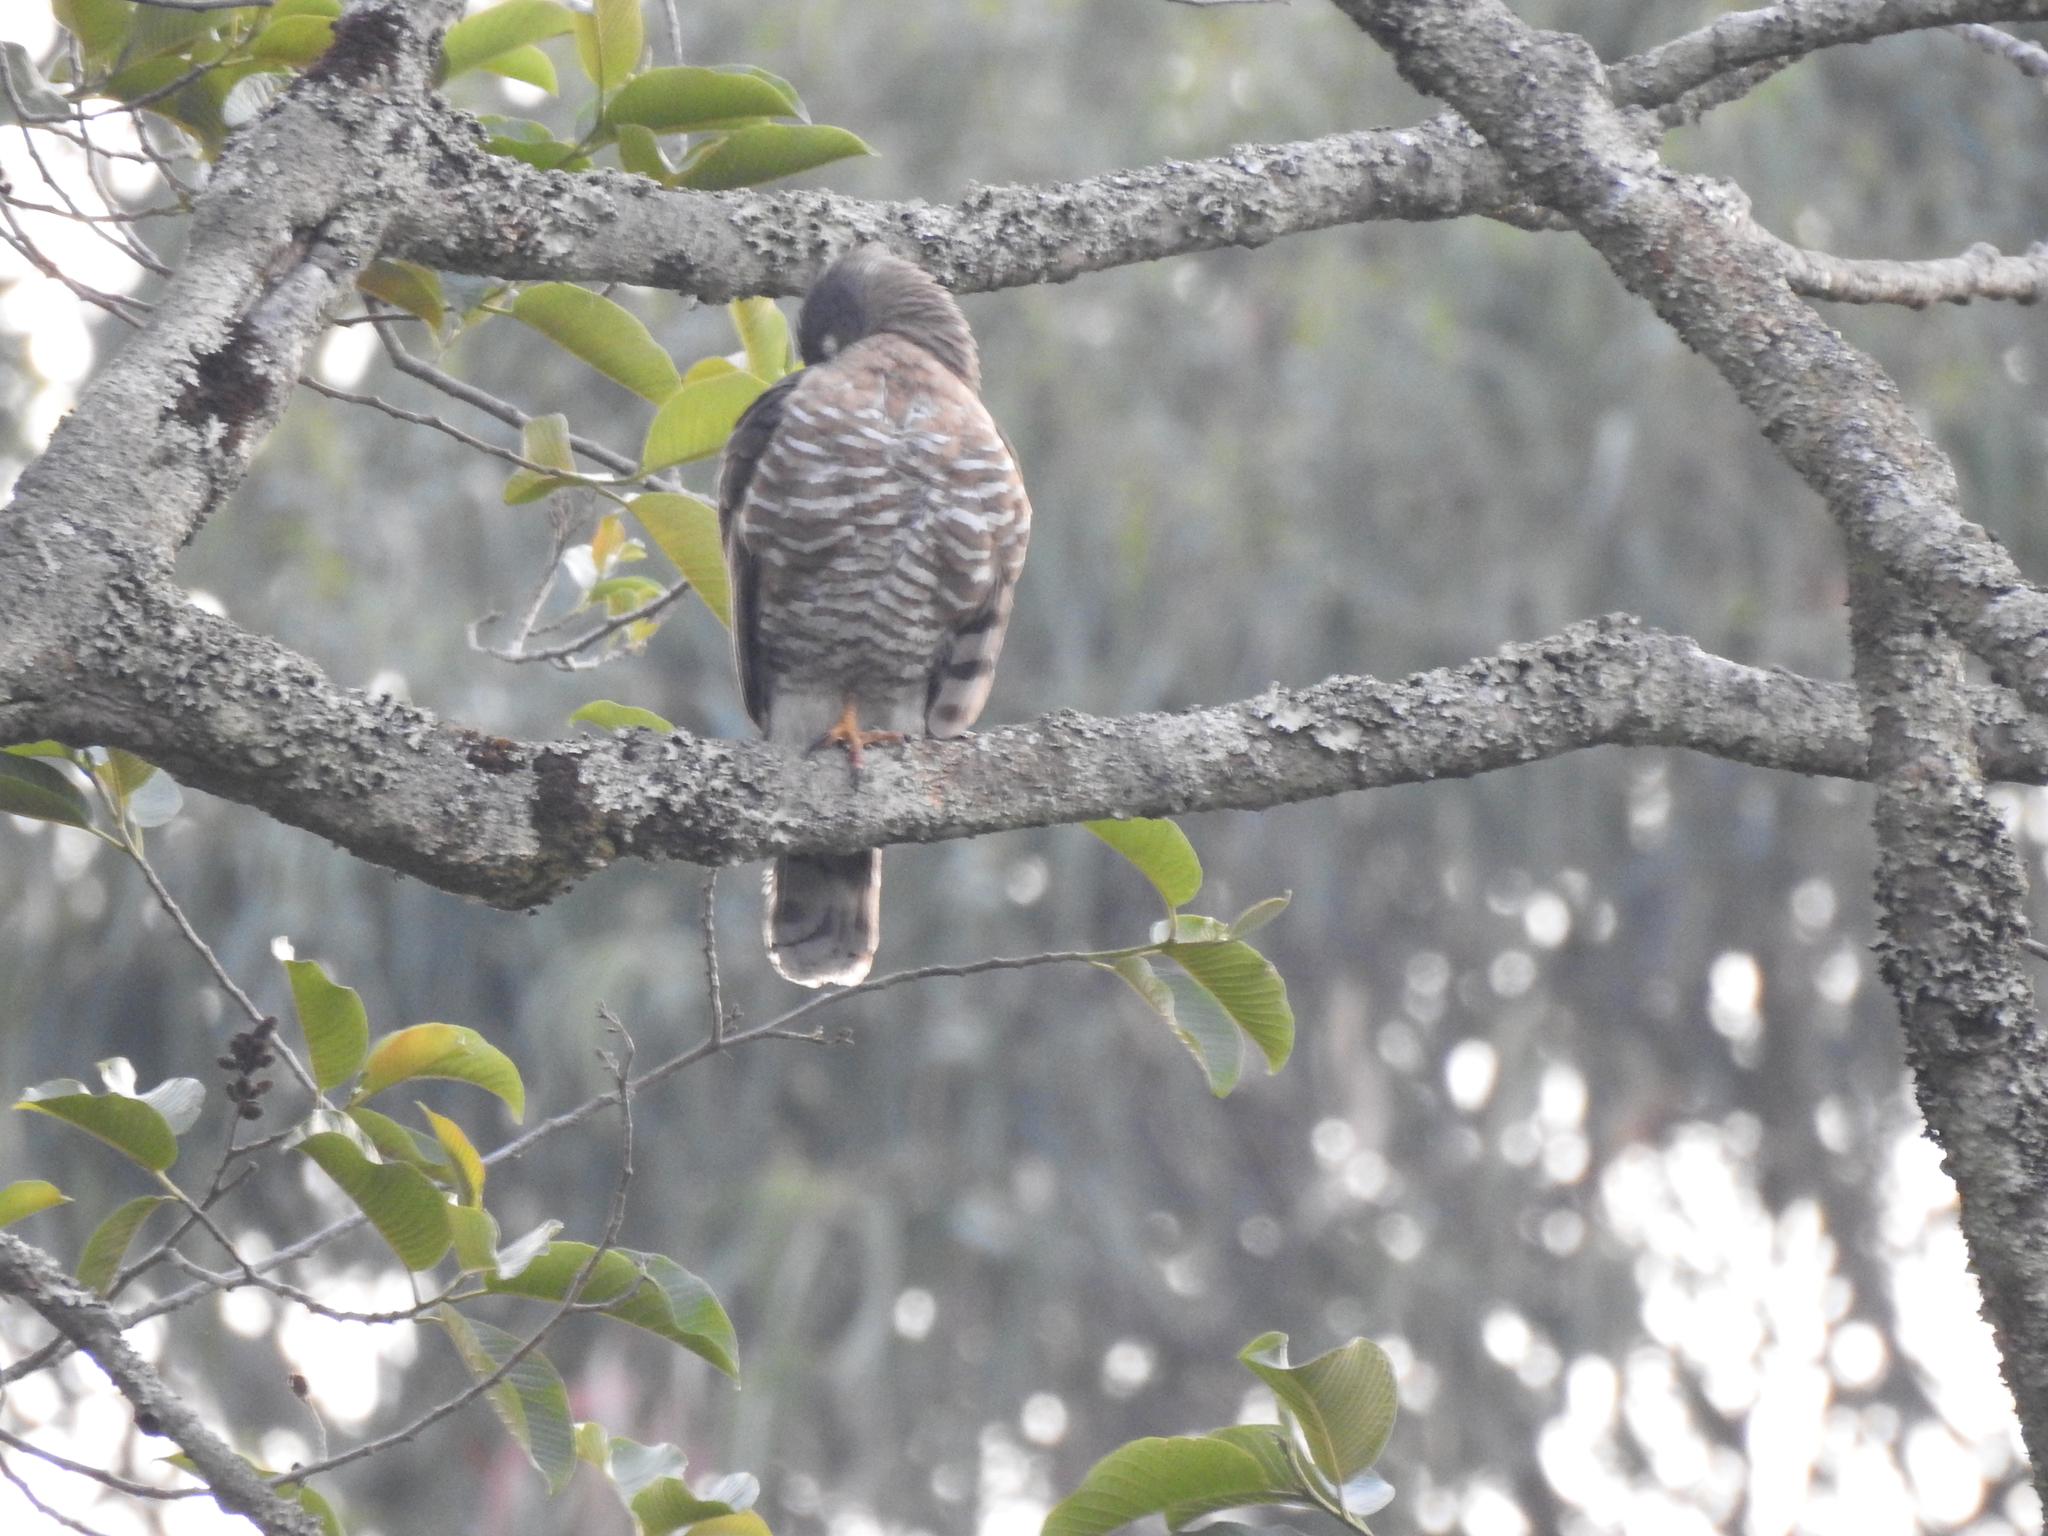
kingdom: Animalia
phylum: Chordata
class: Aves
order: Accipitriformes
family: Accipitridae
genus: Accipiter
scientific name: Accipiter trivirgatus
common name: Crested goshawk
